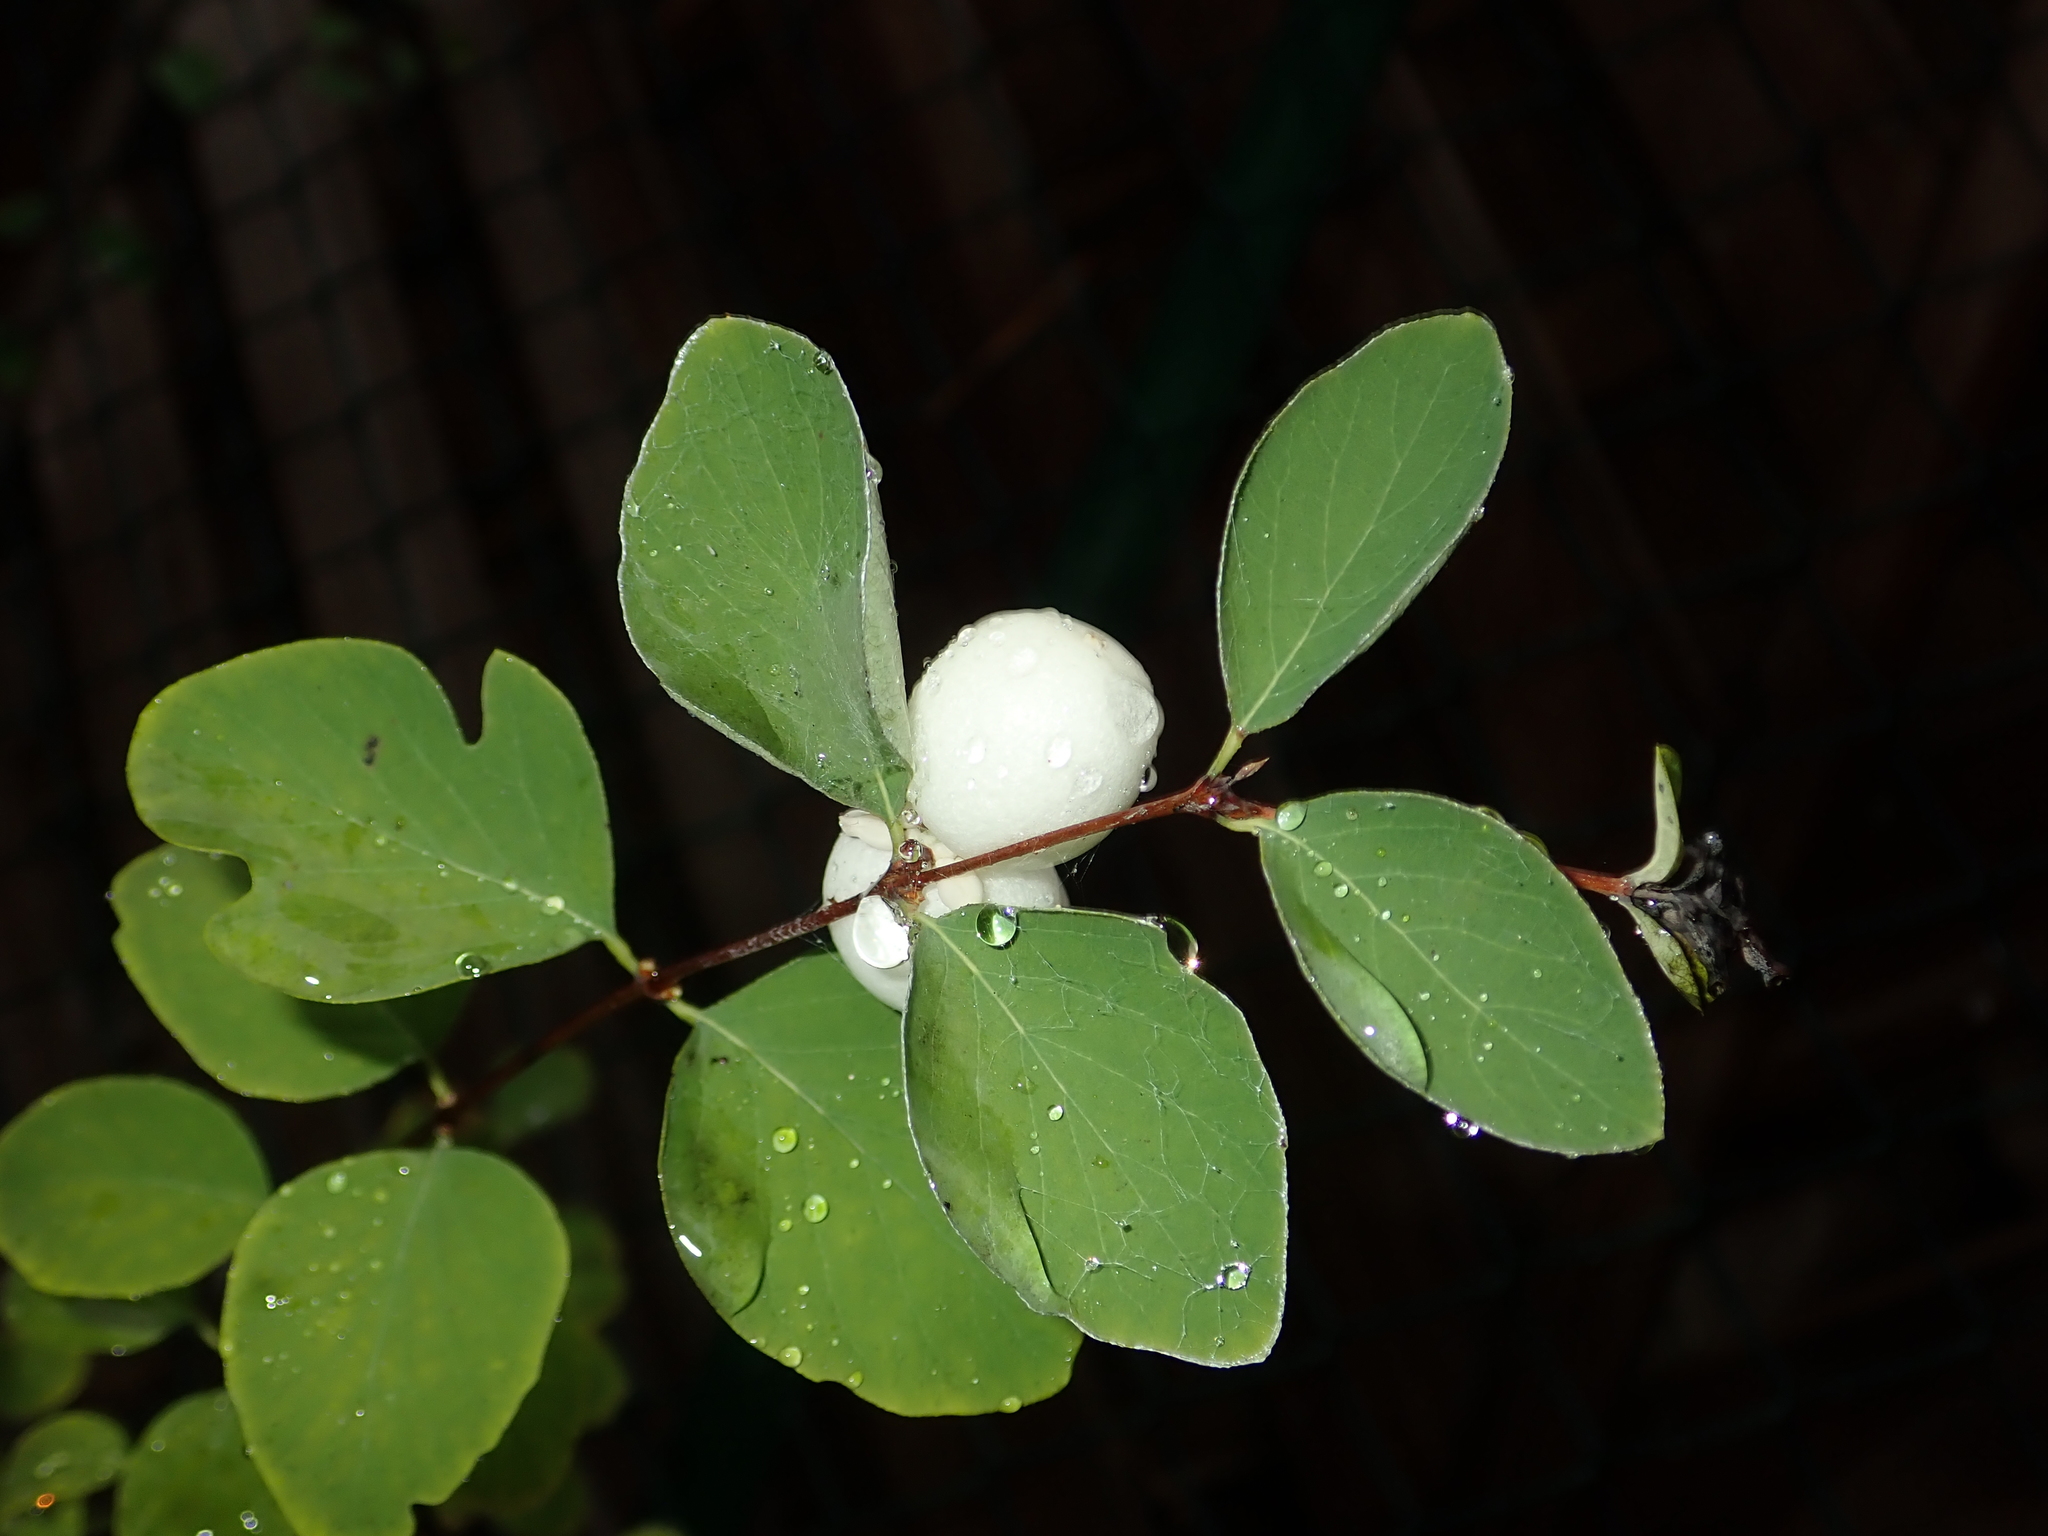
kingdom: Plantae
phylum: Tracheophyta
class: Magnoliopsida
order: Dipsacales
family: Caprifoliaceae
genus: Symphoricarpos
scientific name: Symphoricarpos albus
